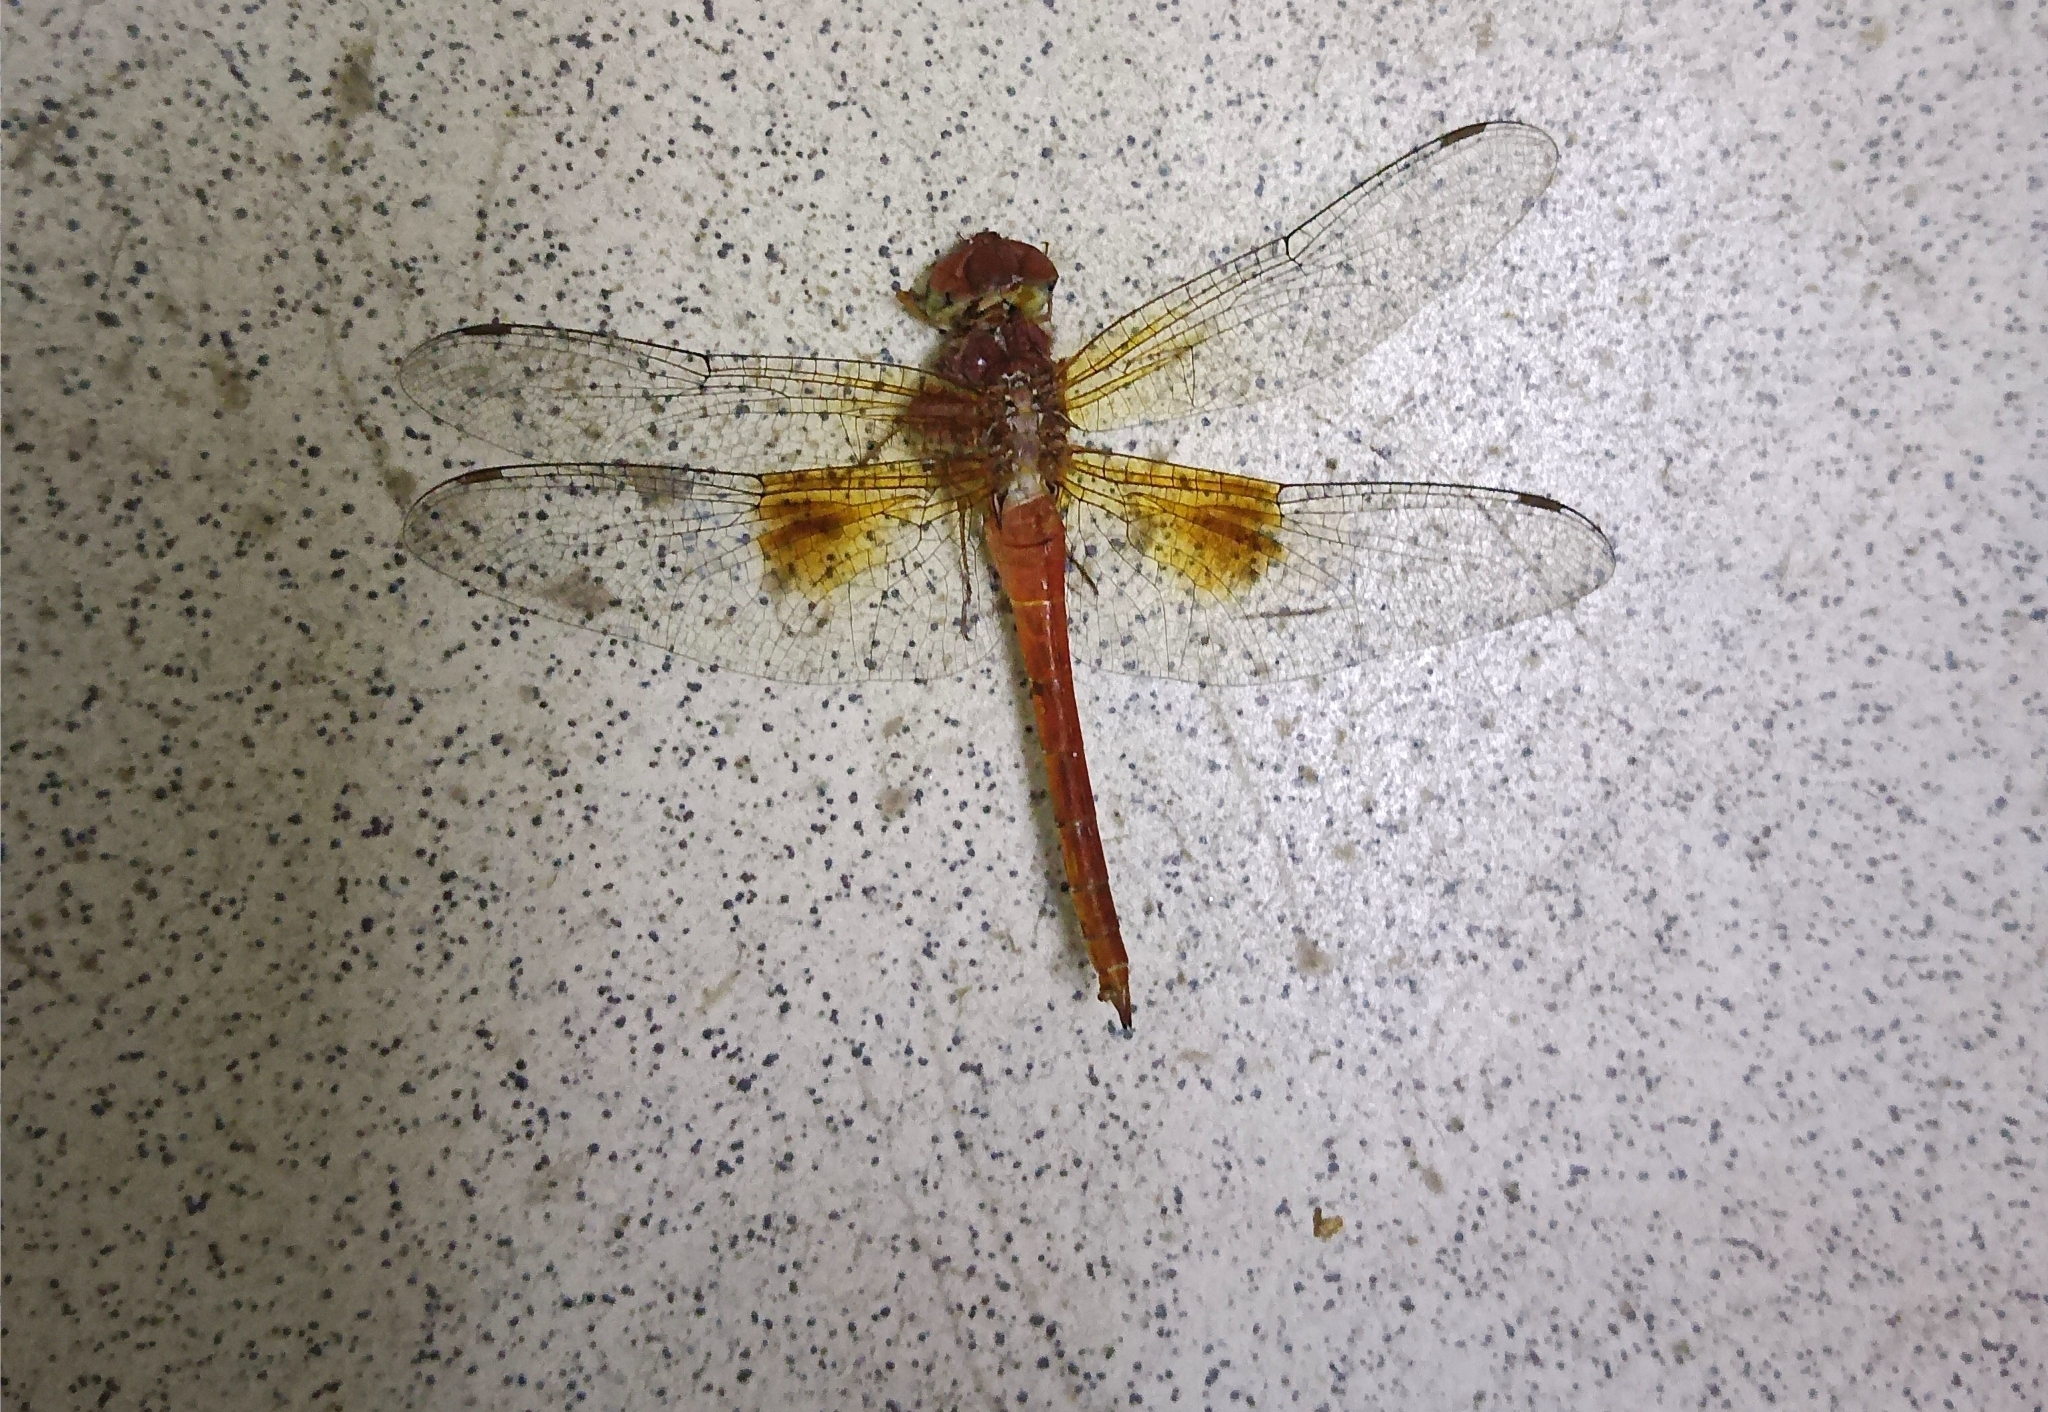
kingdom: Animalia
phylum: Arthropoda
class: Insecta
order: Odonata
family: Libellulidae
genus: Tholymis
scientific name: Tholymis tillarga
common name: Coral-tailed cloud wing
